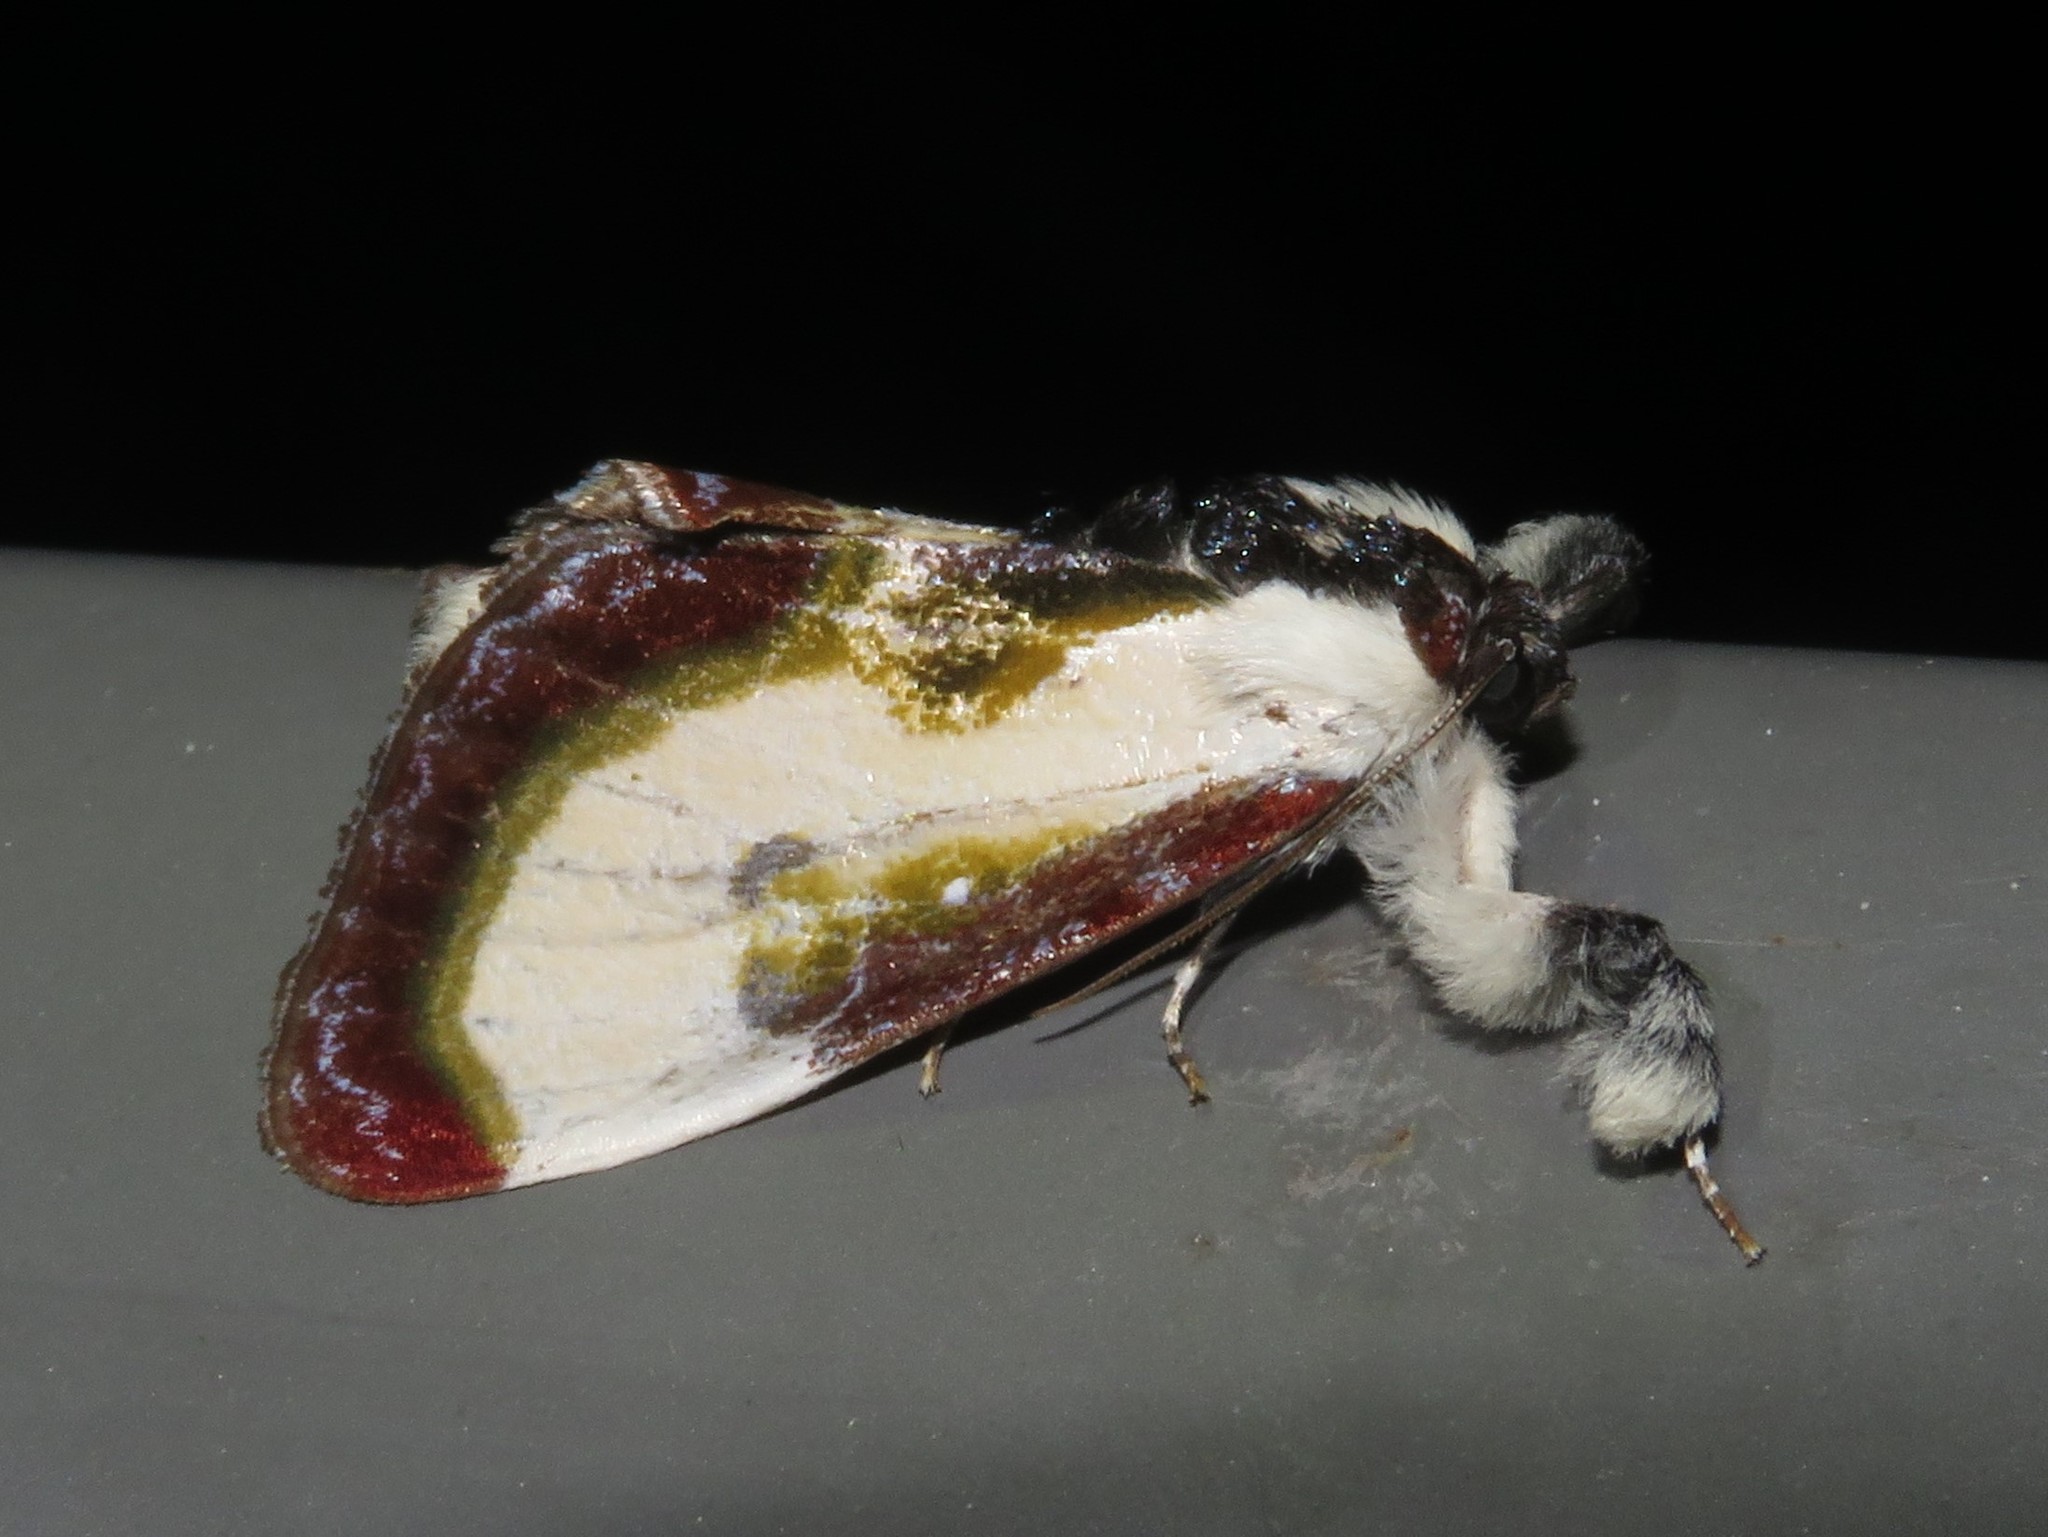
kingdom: Animalia
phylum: Arthropoda
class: Insecta
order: Lepidoptera
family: Noctuidae
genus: Eudryas
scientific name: Eudryas grata
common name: Beautiful wood-nymph
